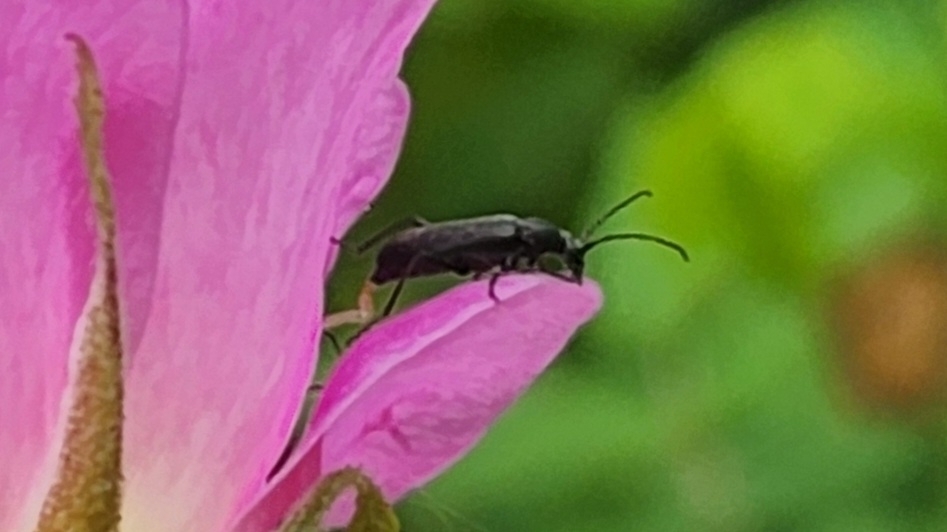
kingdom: Animalia
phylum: Arthropoda
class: Insecta
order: Coleoptera
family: Cerambycidae
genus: Grammoptera
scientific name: Grammoptera subargentata
